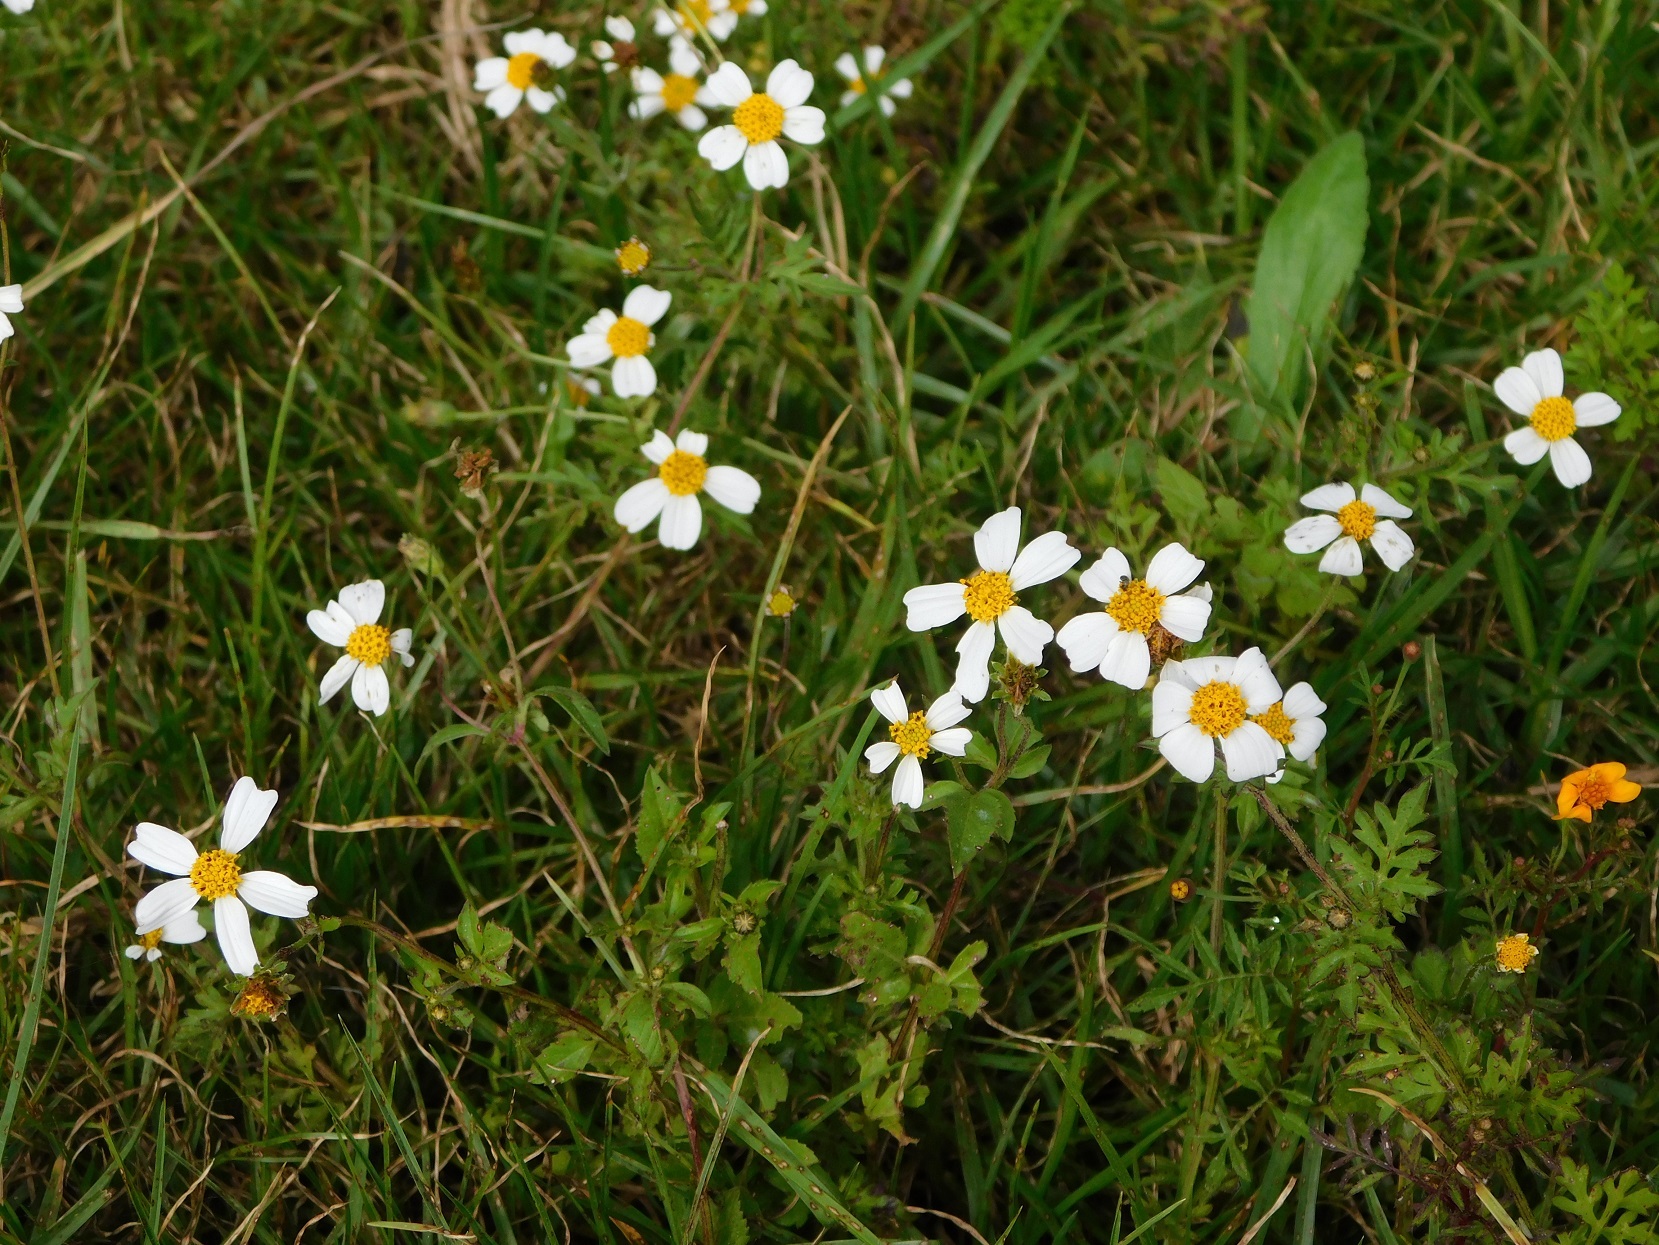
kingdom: Plantae
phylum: Tracheophyta
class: Magnoliopsida
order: Asterales
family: Asteraceae
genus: Bidens
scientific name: Bidens odorata
